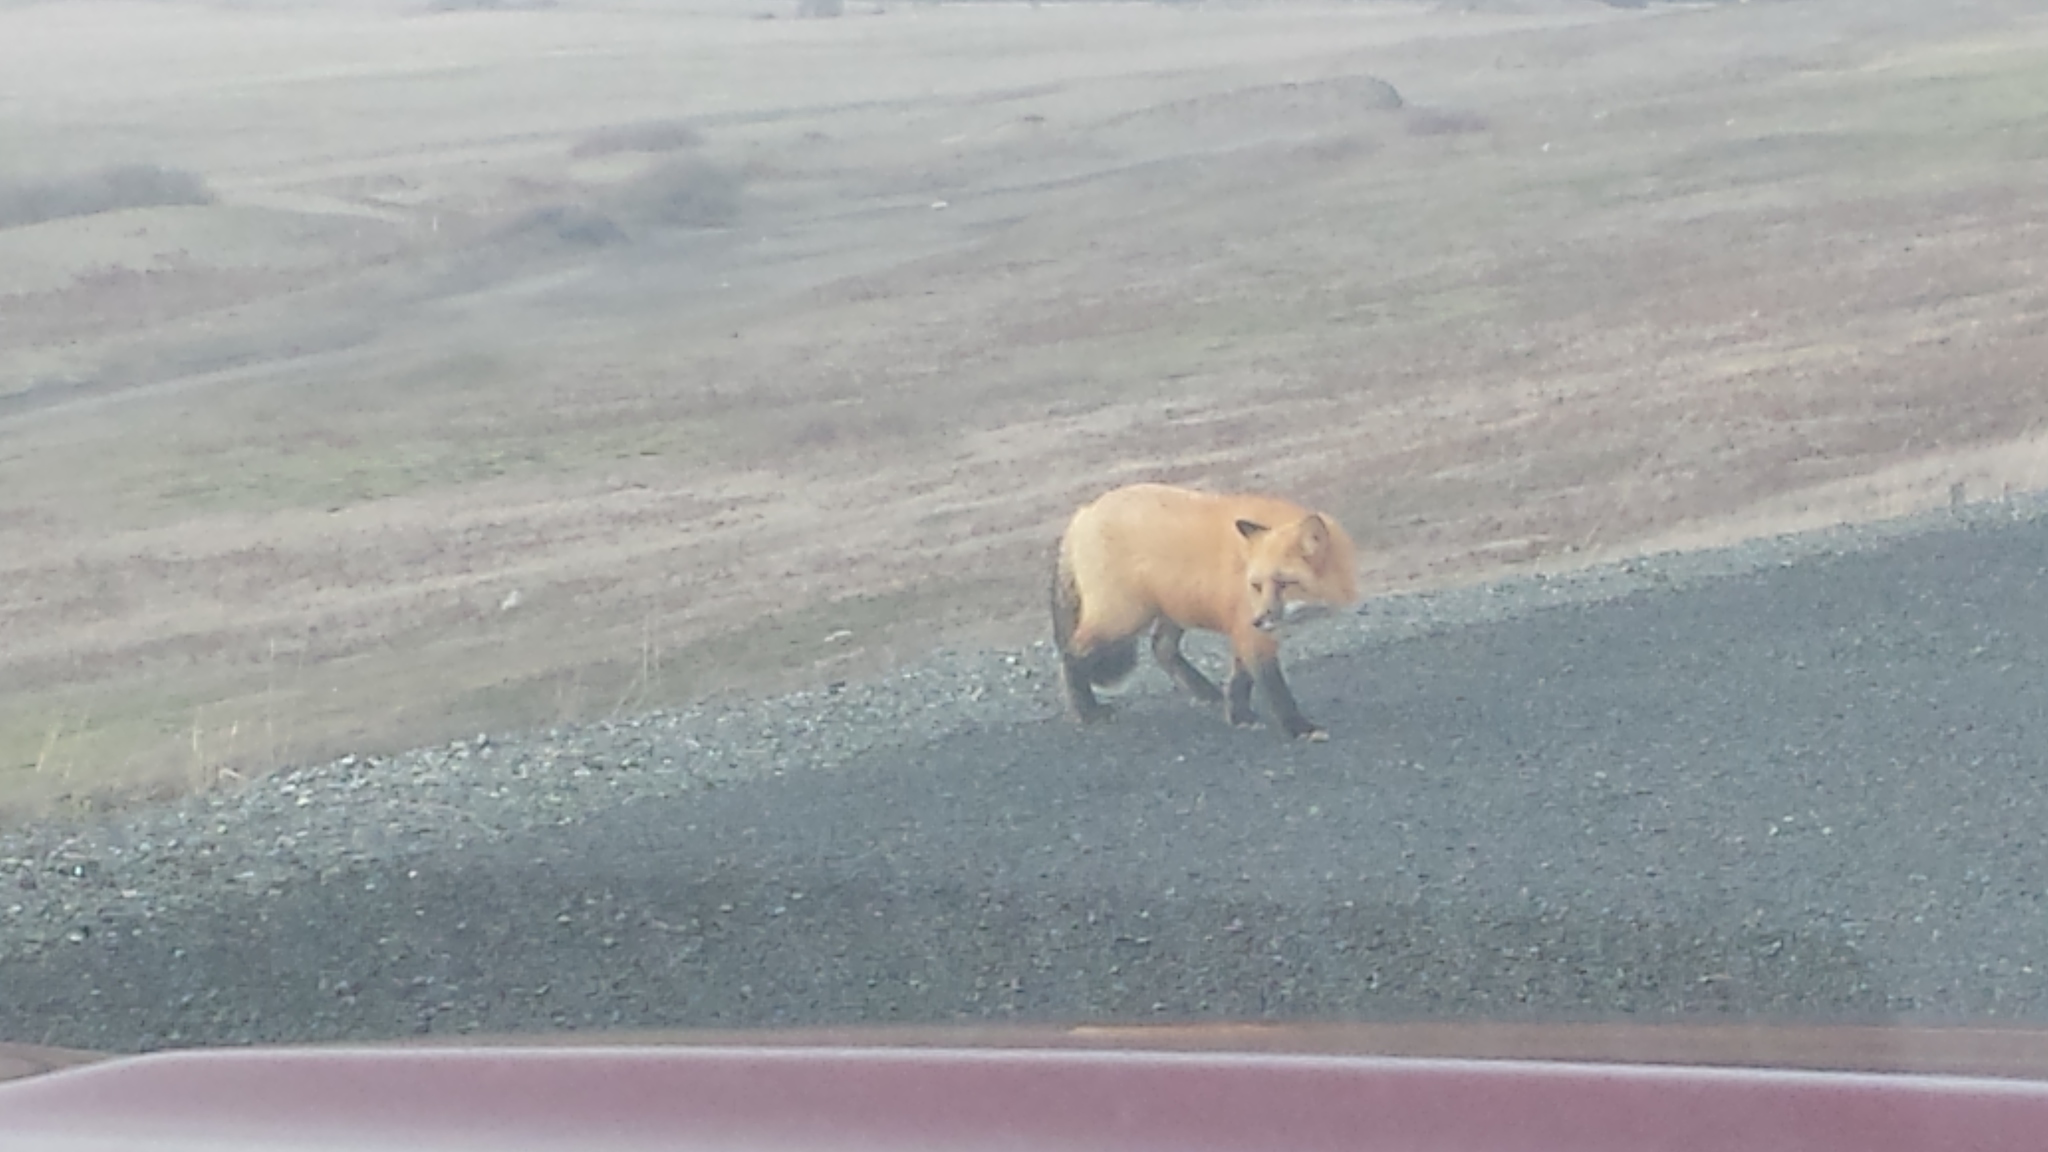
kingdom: Animalia
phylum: Chordata
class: Mammalia
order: Carnivora
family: Canidae
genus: Vulpes
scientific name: Vulpes vulpes
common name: Red fox
